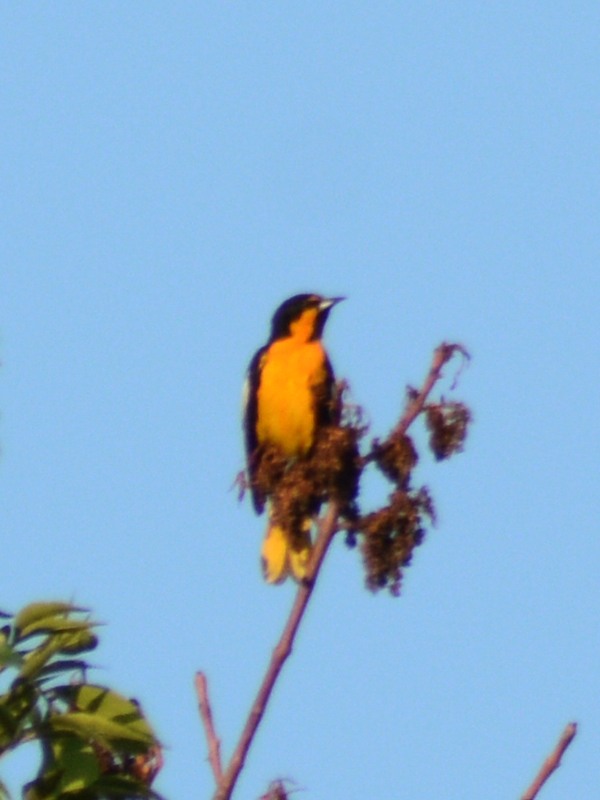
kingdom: Animalia
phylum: Chordata
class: Aves
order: Passeriformes
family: Icteridae
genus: Icterus
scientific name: Icterus abeillei
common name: Black-backed oriole
